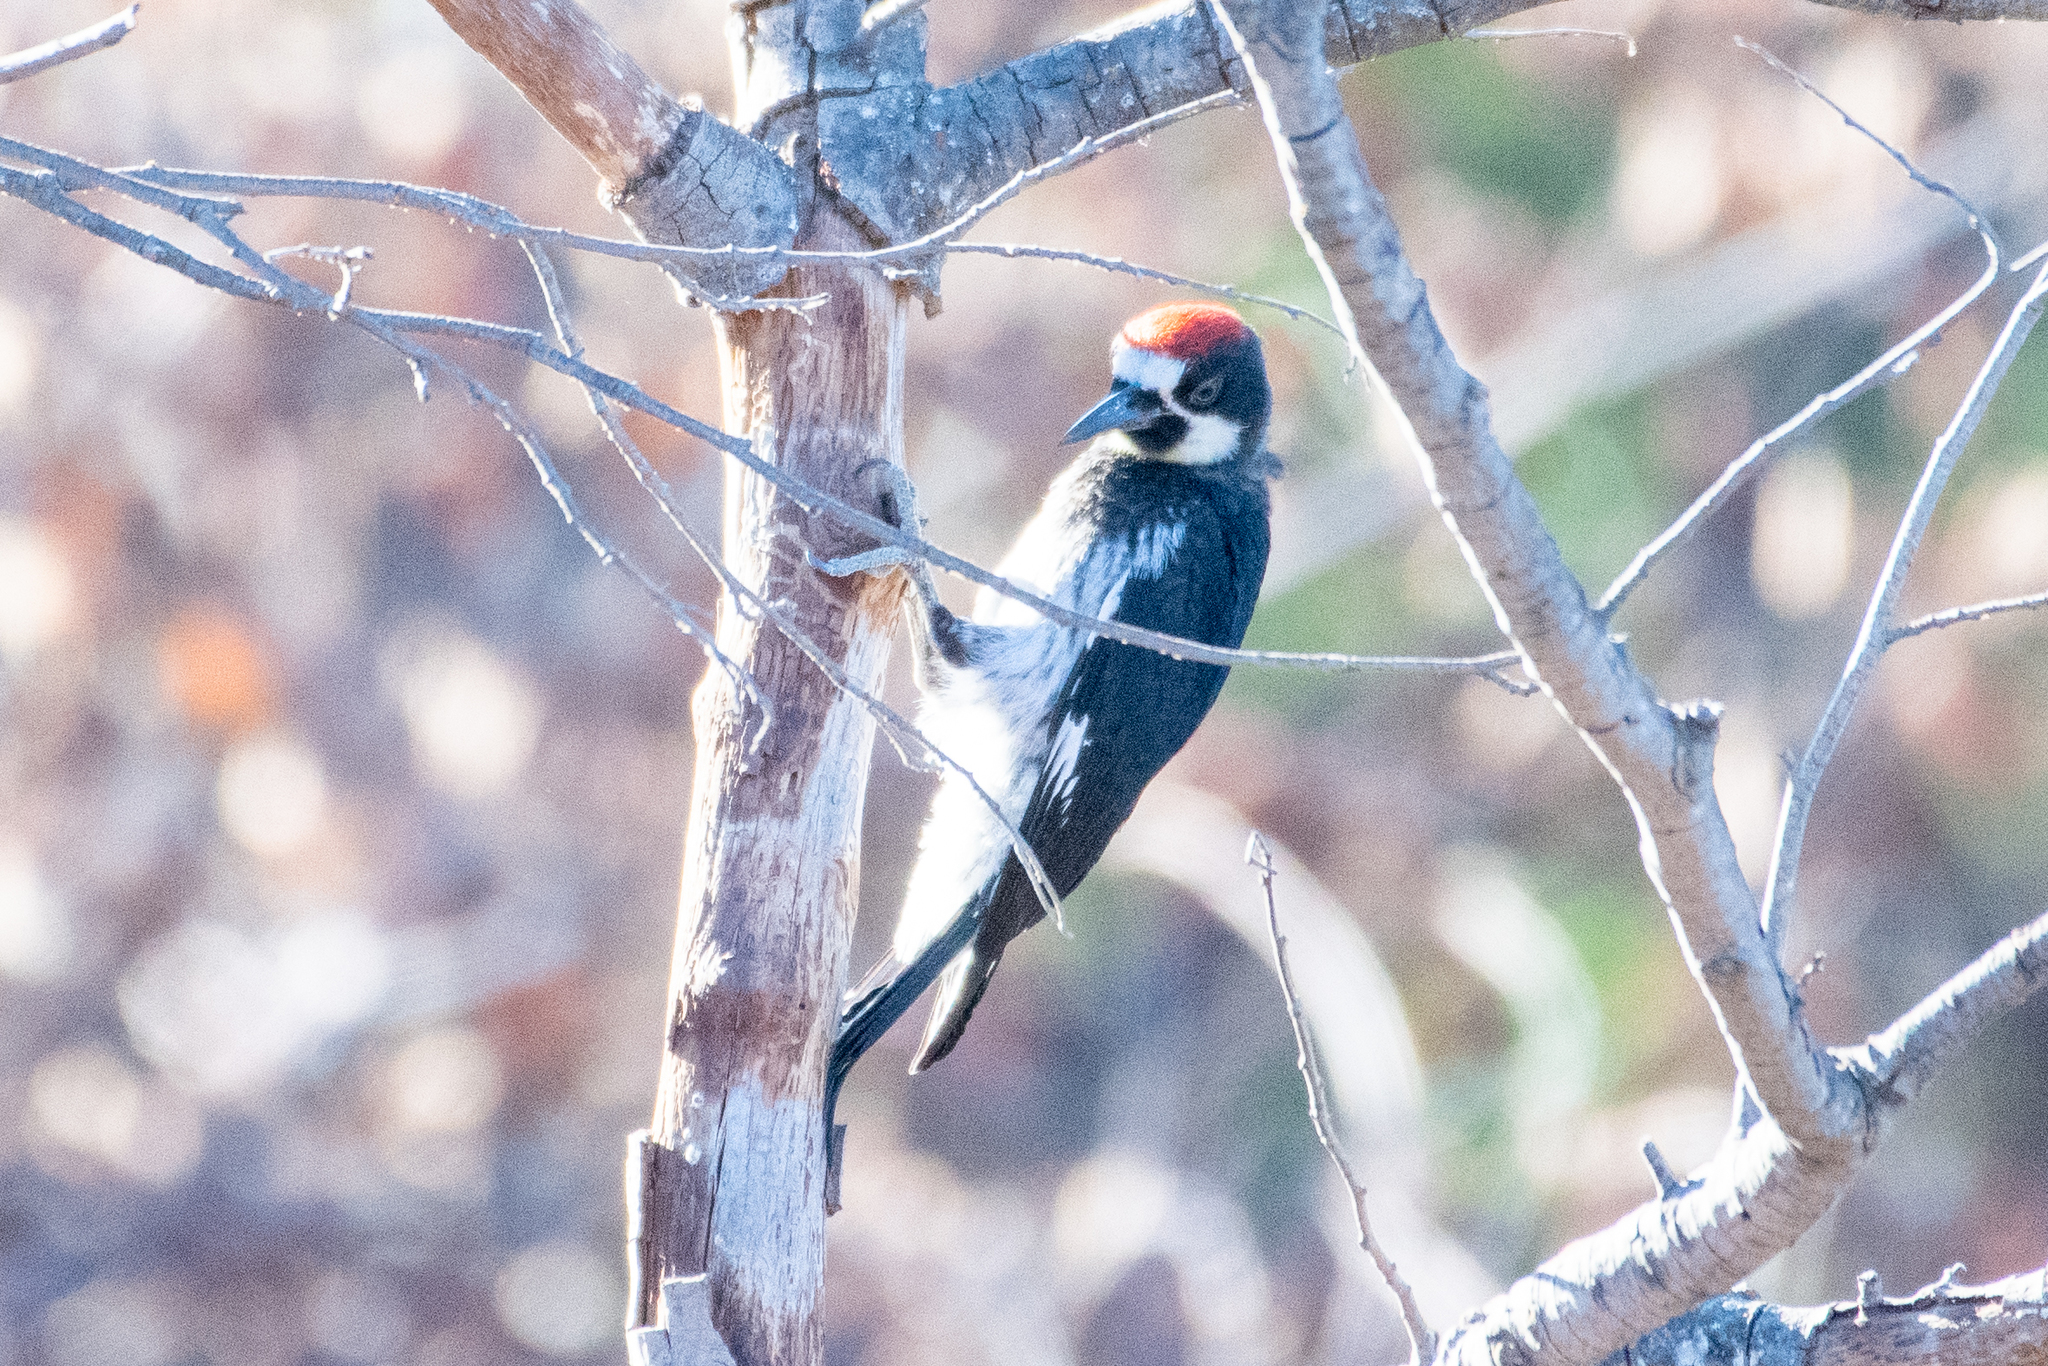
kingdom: Animalia
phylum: Chordata
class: Aves
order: Piciformes
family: Picidae
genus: Melanerpes
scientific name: Melanerpes formicivorus
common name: Acorn woodpecker
